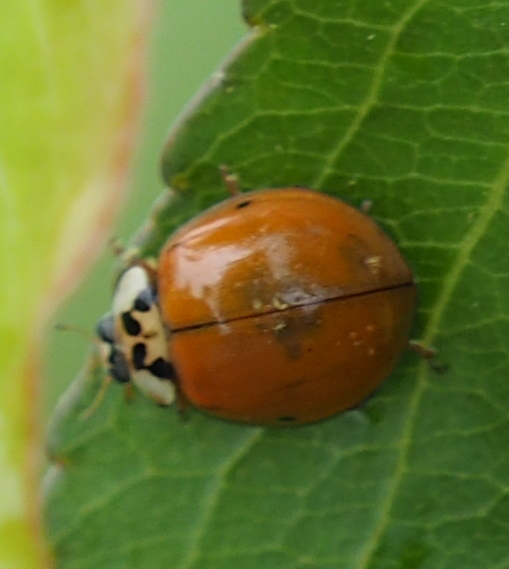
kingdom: Animalia
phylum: Arthropoda
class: Insecta
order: Coleoptera
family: Coccinellidae
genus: Harmonia
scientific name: Harmonia axyridis
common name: Harlequin ladybird
